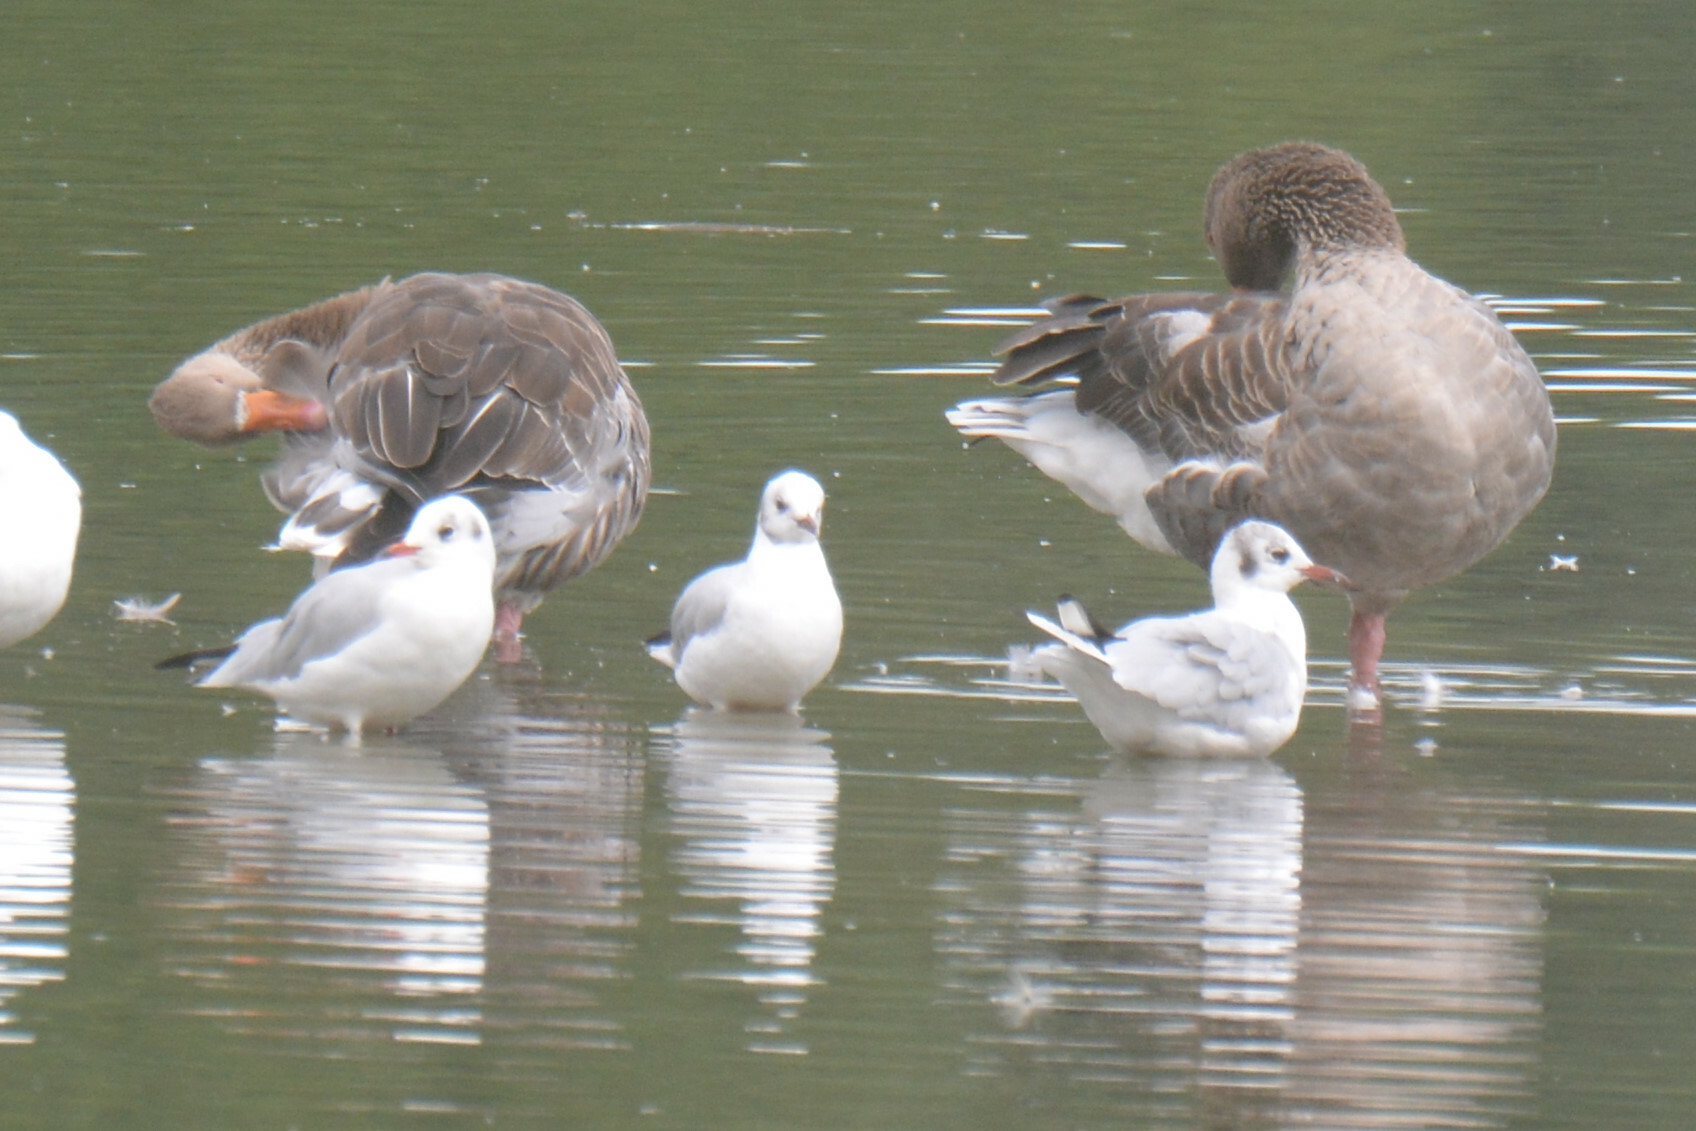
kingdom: Animalia
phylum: Chordata
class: Aves
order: Anseriformes
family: Anatidae
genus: Anser
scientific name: Anser anser
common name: Greylag goose
